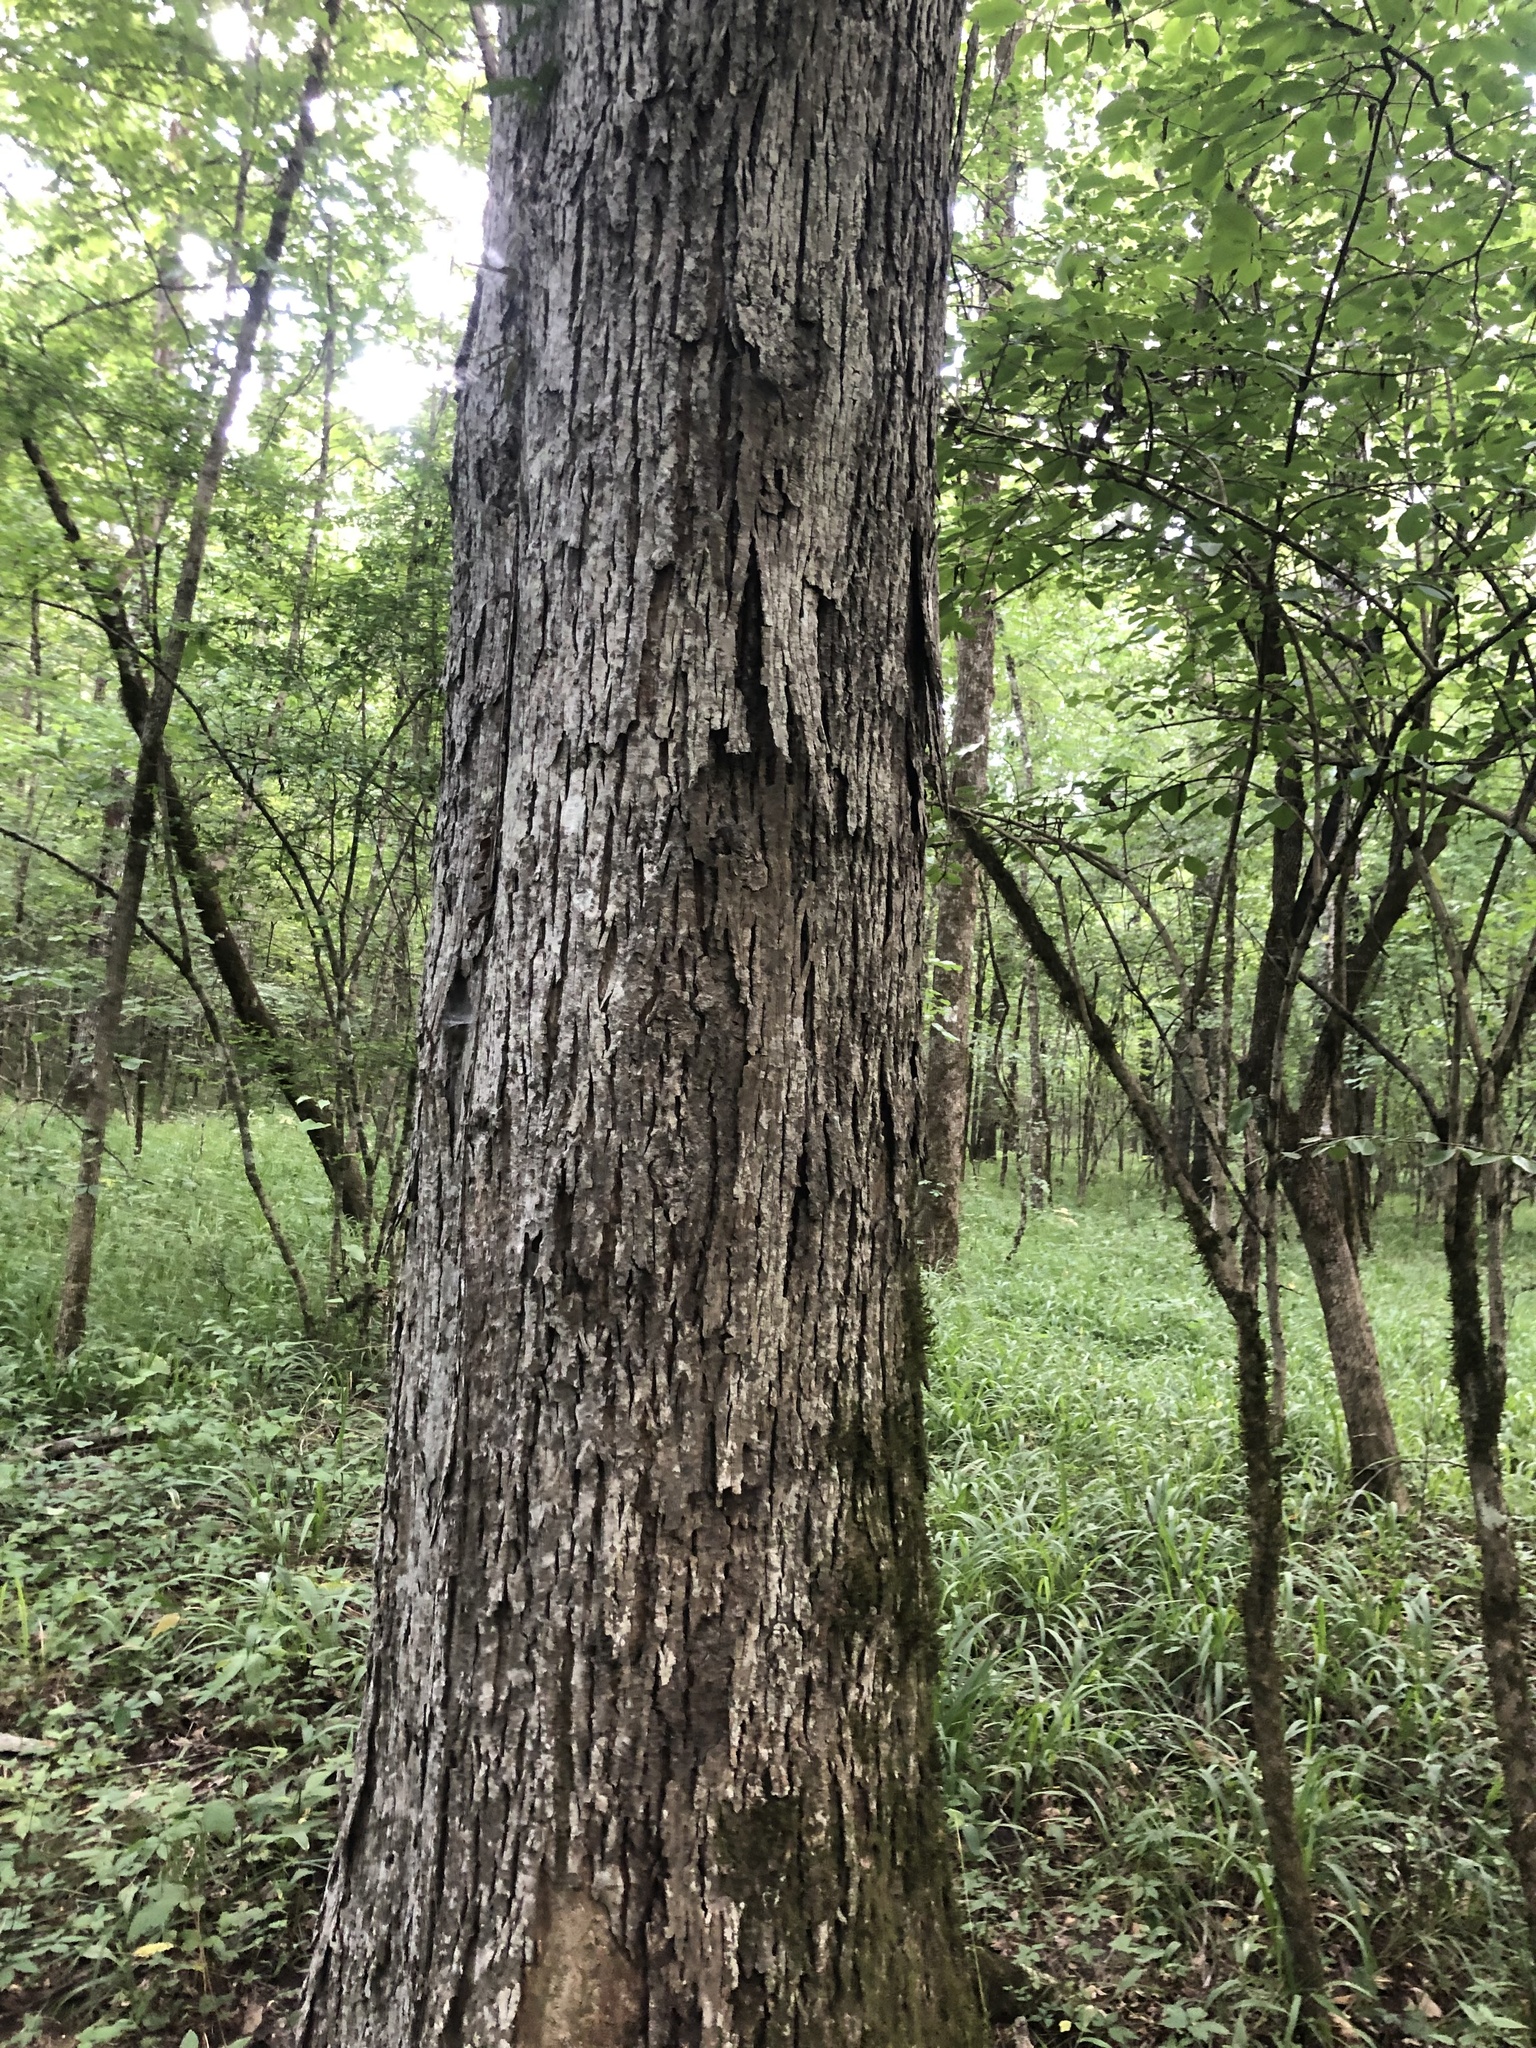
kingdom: Plantae
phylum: Tracheophyta
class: Magnoliopsida
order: Fagales
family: Juglandaceae
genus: Carya
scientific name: Carya myristiciformis
